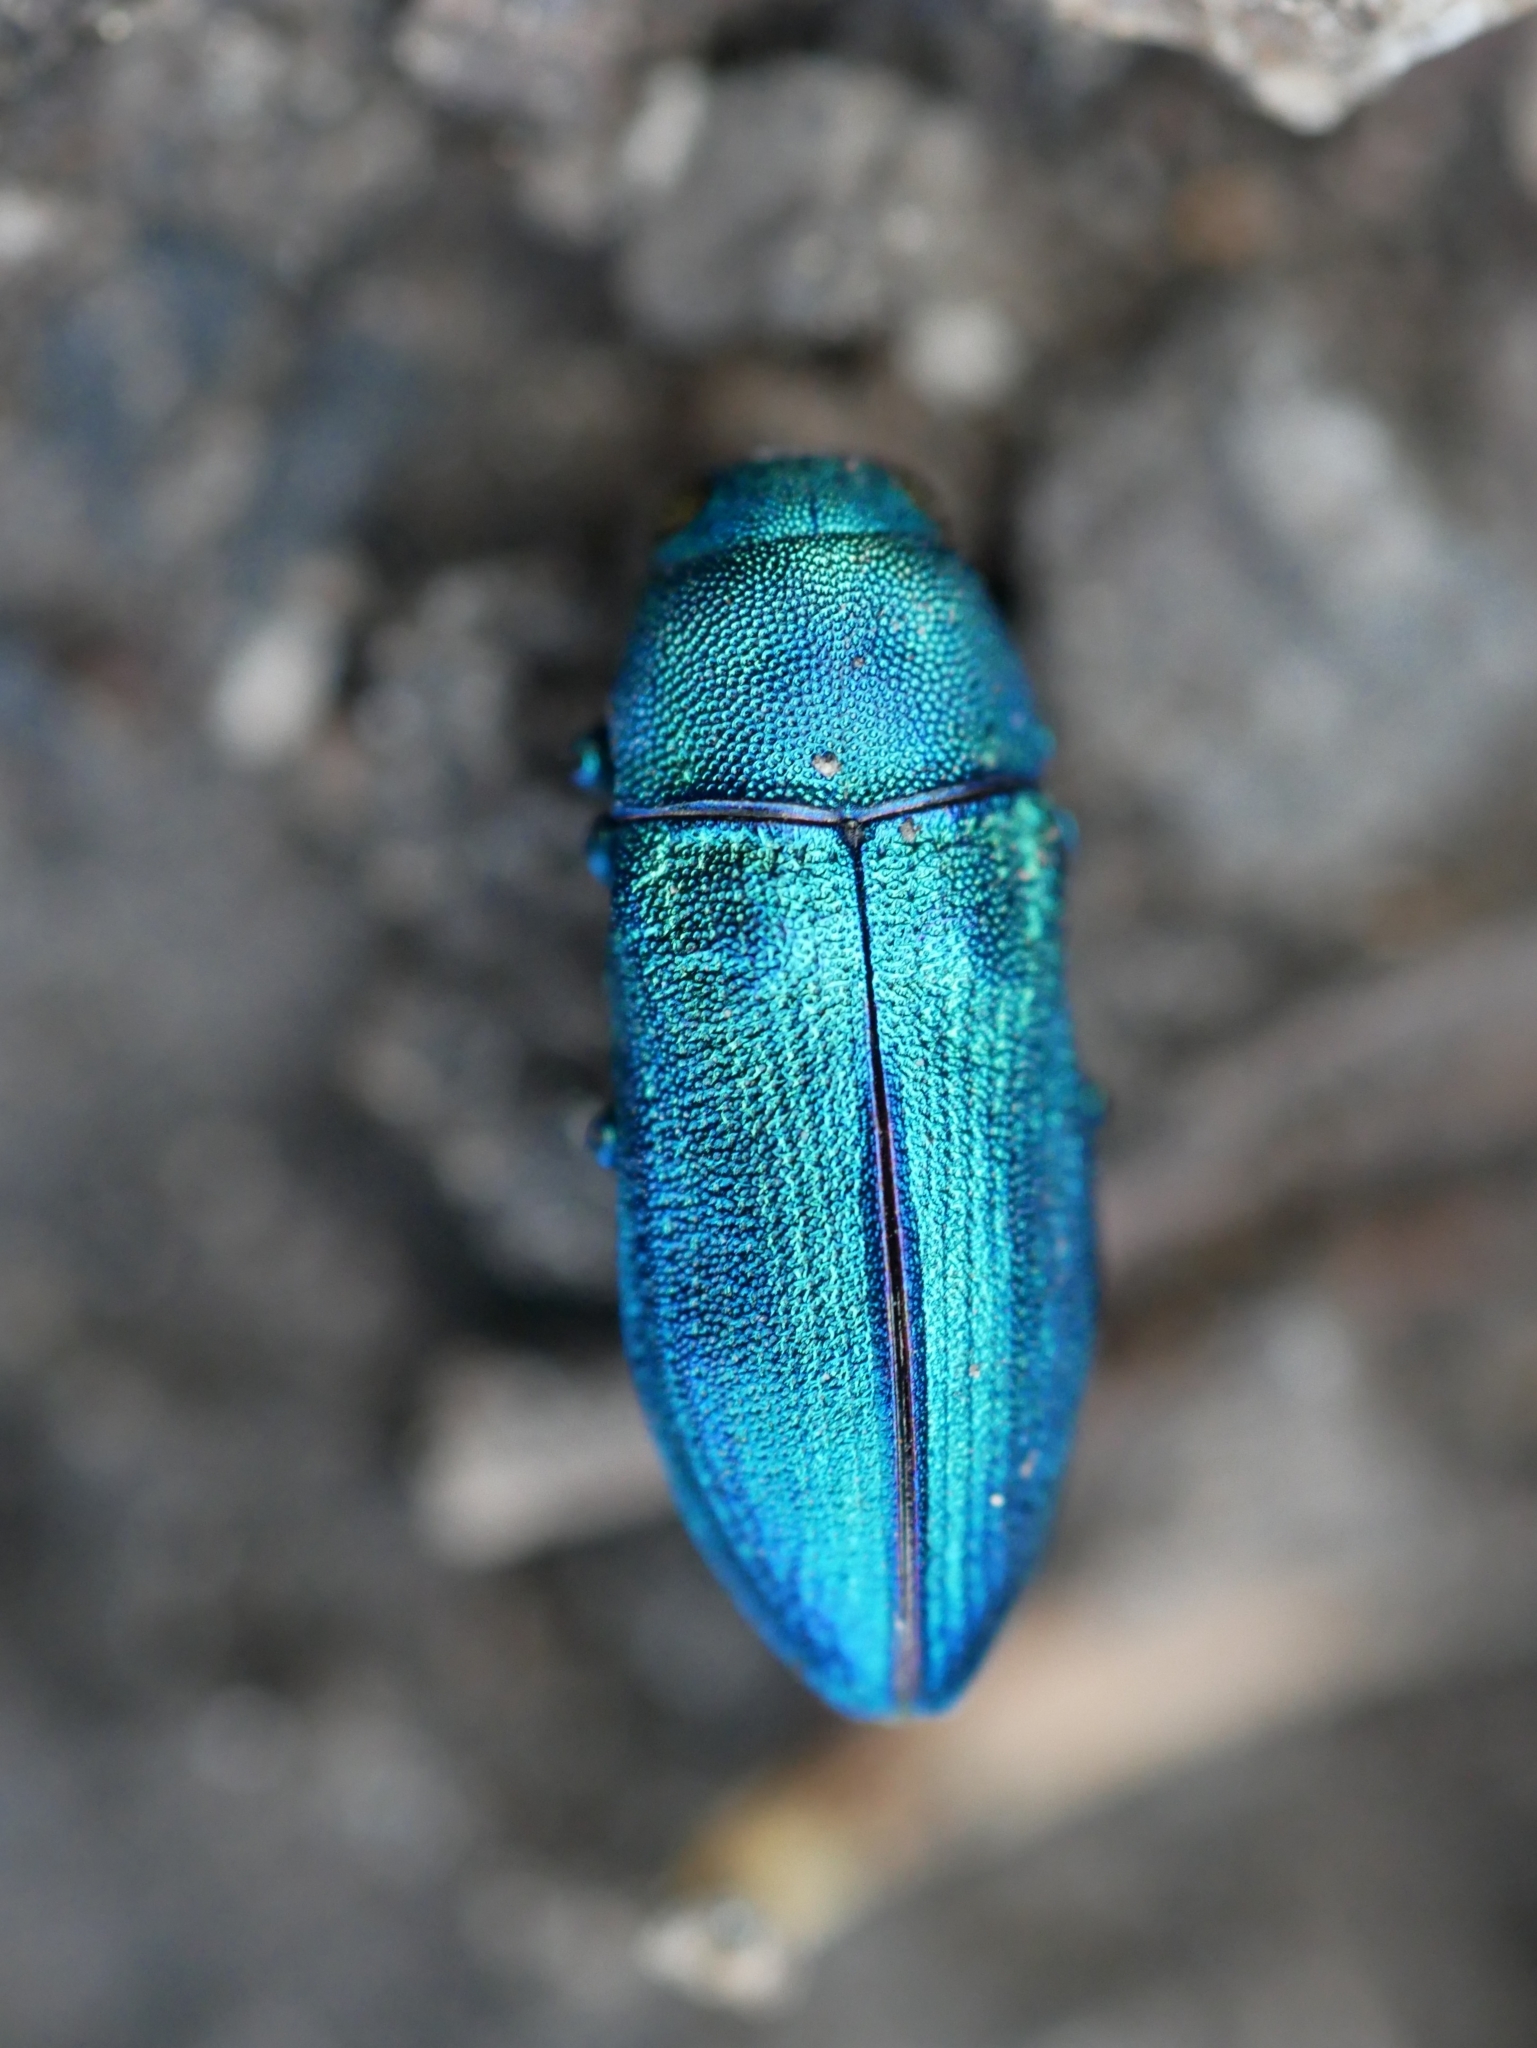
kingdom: Animalia
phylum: Arthropoda
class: Insecta
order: Coleoptera
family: Buprestidae
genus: Chrysophana
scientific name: Chrysophana placida
